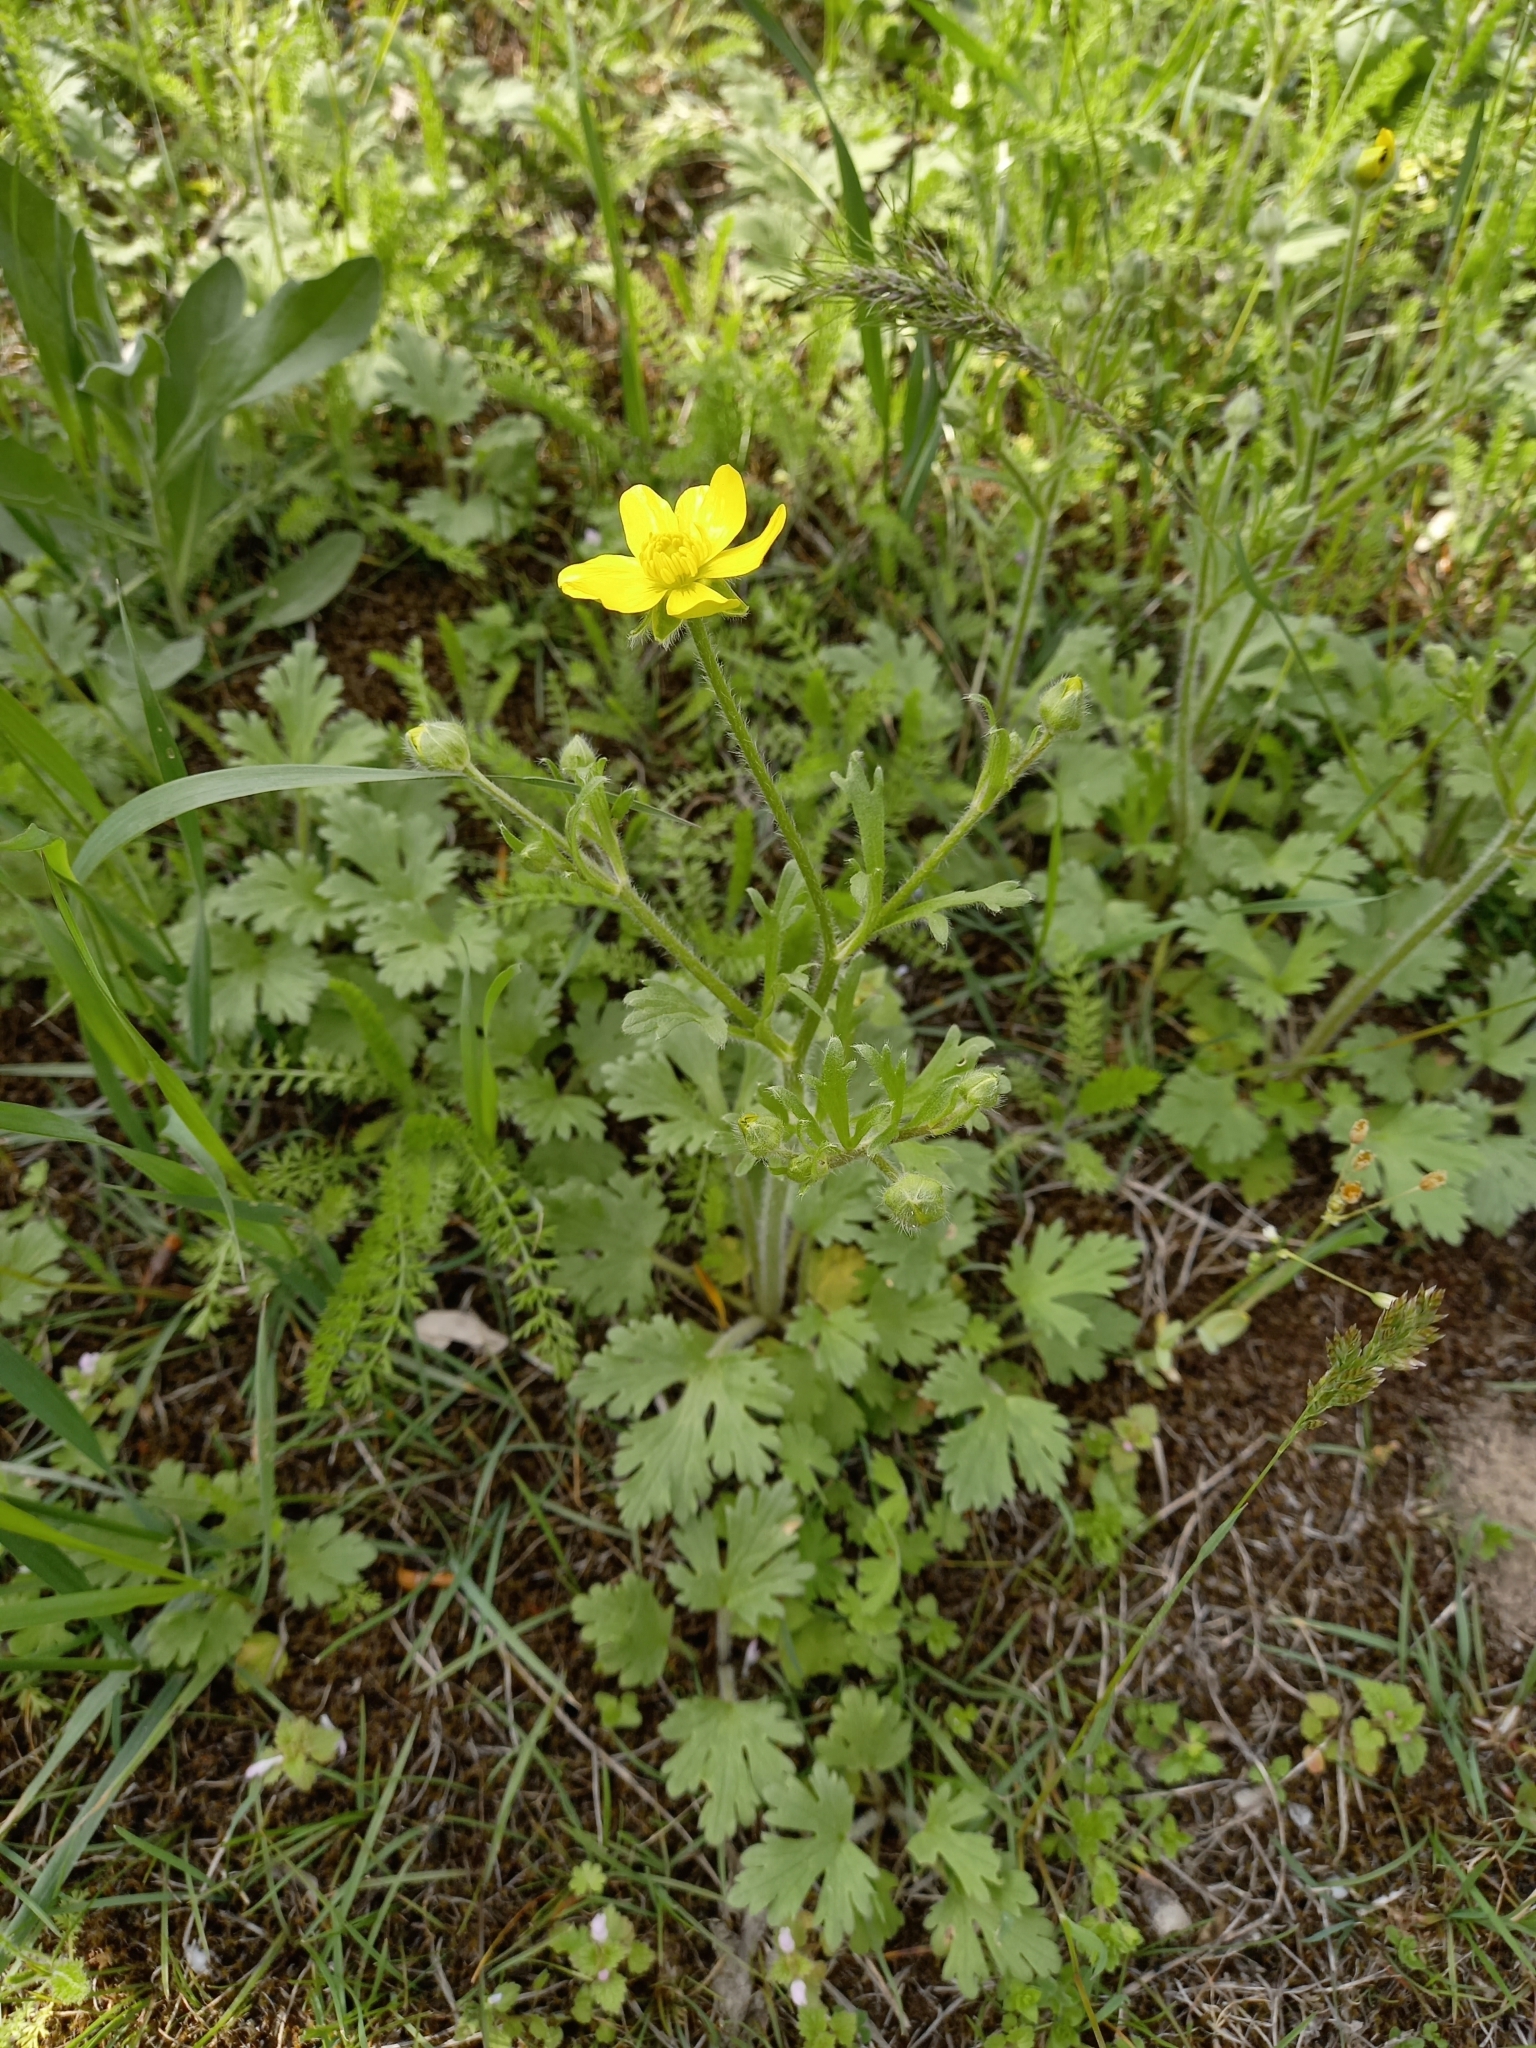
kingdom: Plantae
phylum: Tracheophyta
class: Magnoliopsida
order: Ranunculales
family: Ranunculaceae
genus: Ranunculus
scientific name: Ranunculus oxyspermus
